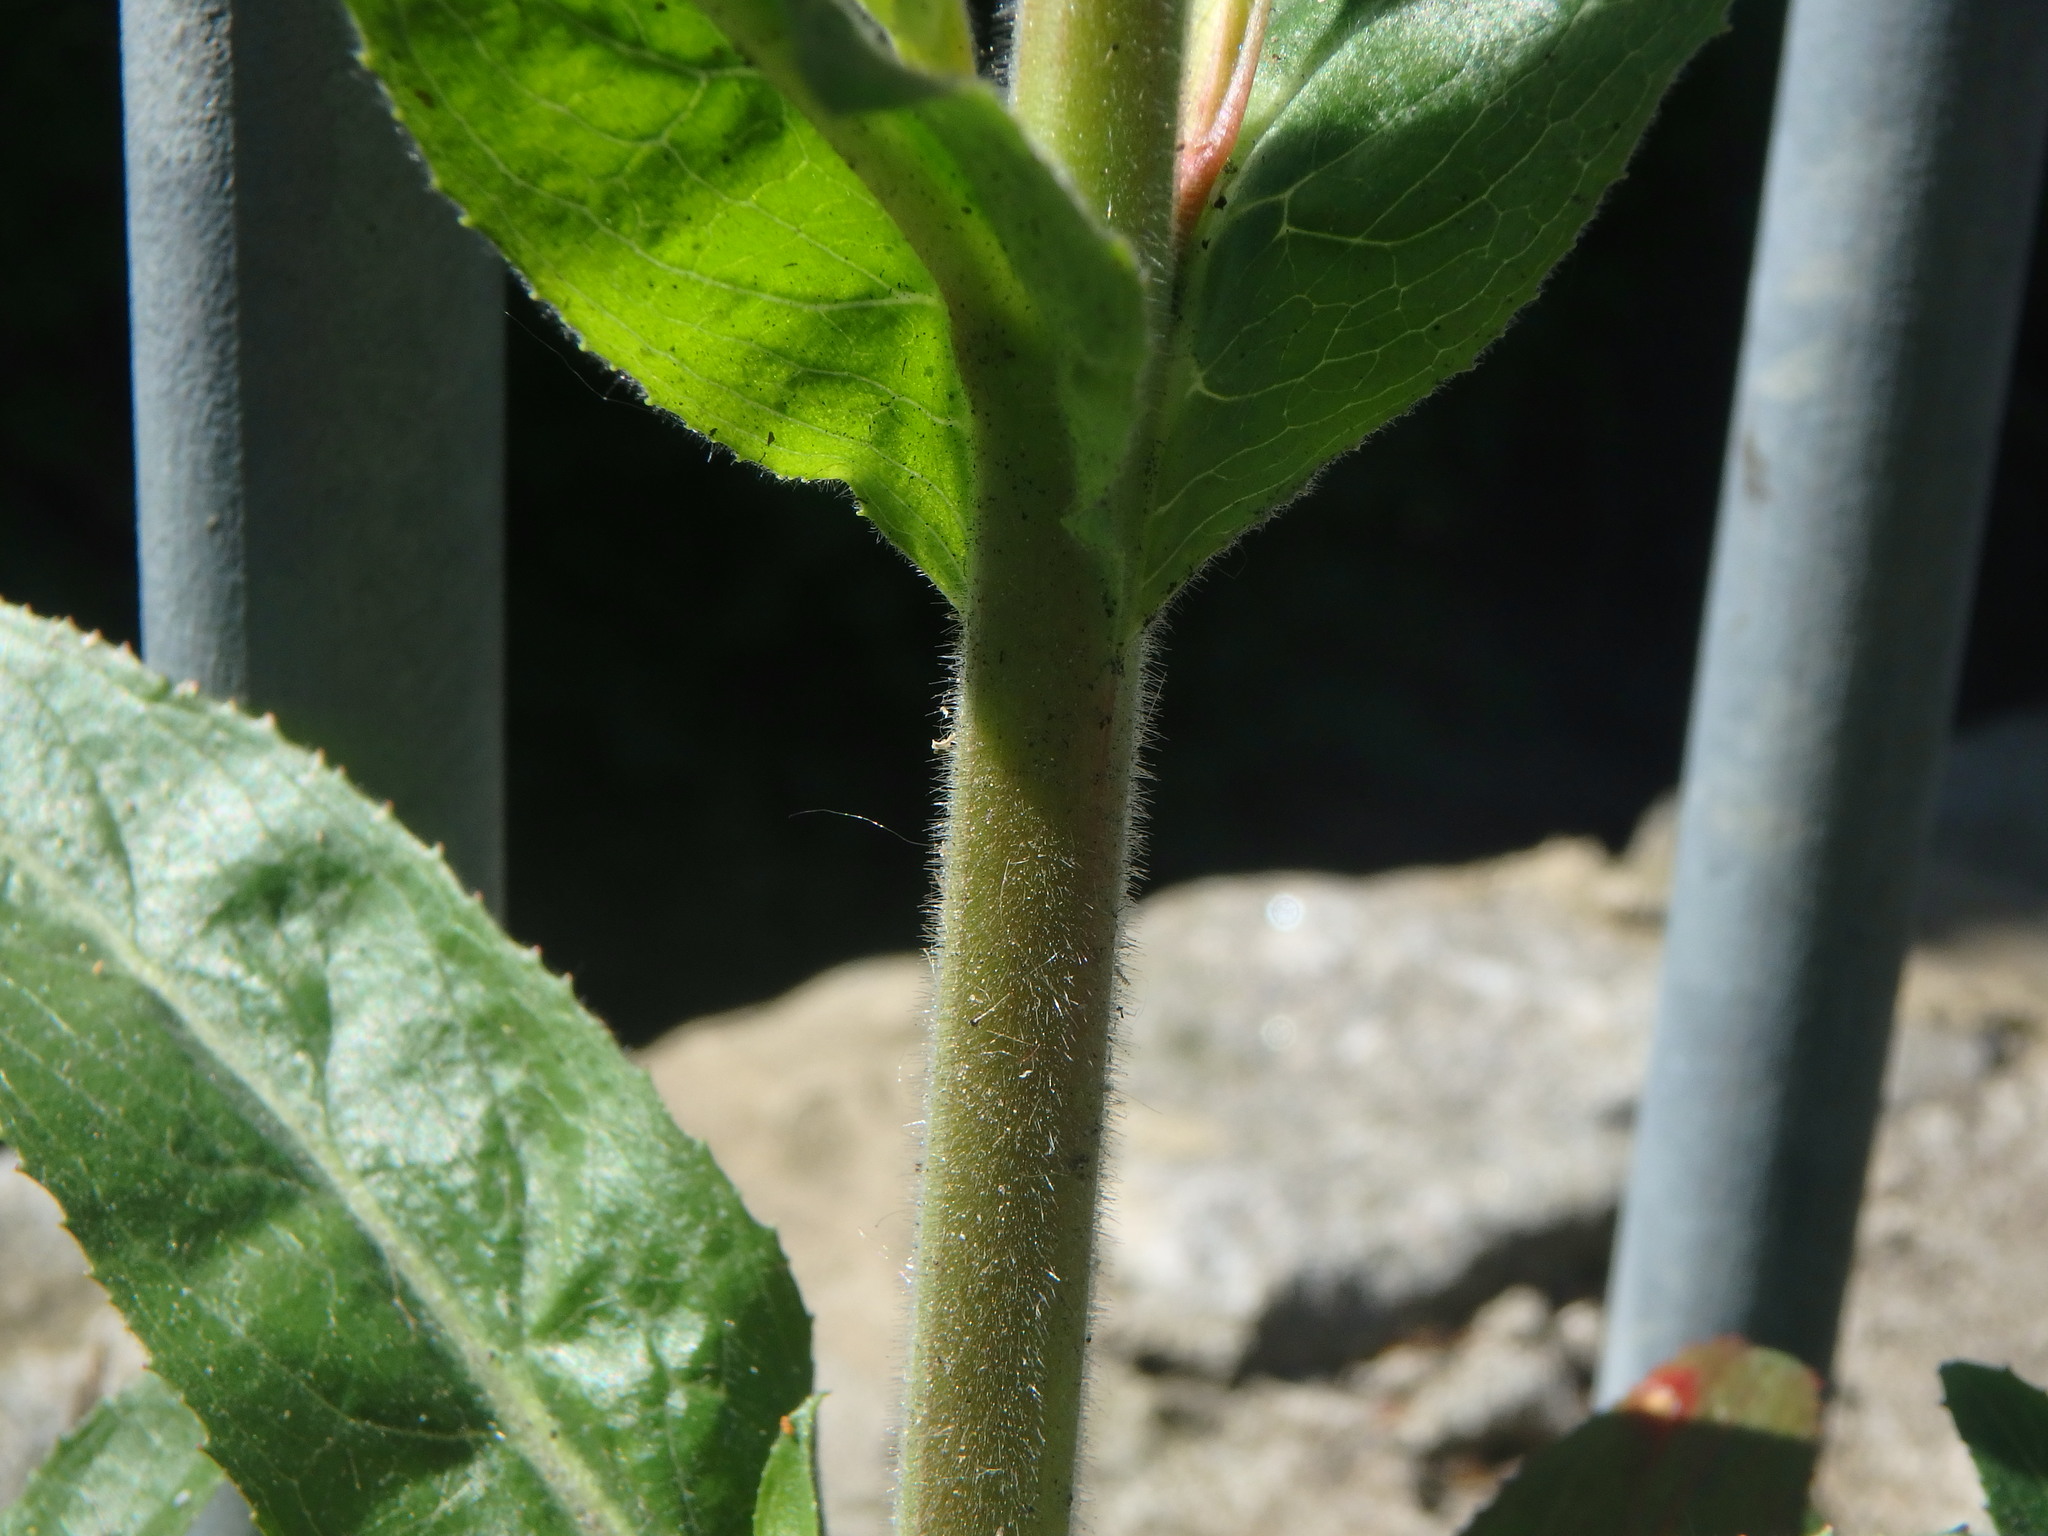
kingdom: Plantae
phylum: Tracheophyta
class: Magnoliopsida
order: Myrtales
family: Onagraceae
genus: Epilobium
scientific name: Epilobium hirsutum
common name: Great willowherb
